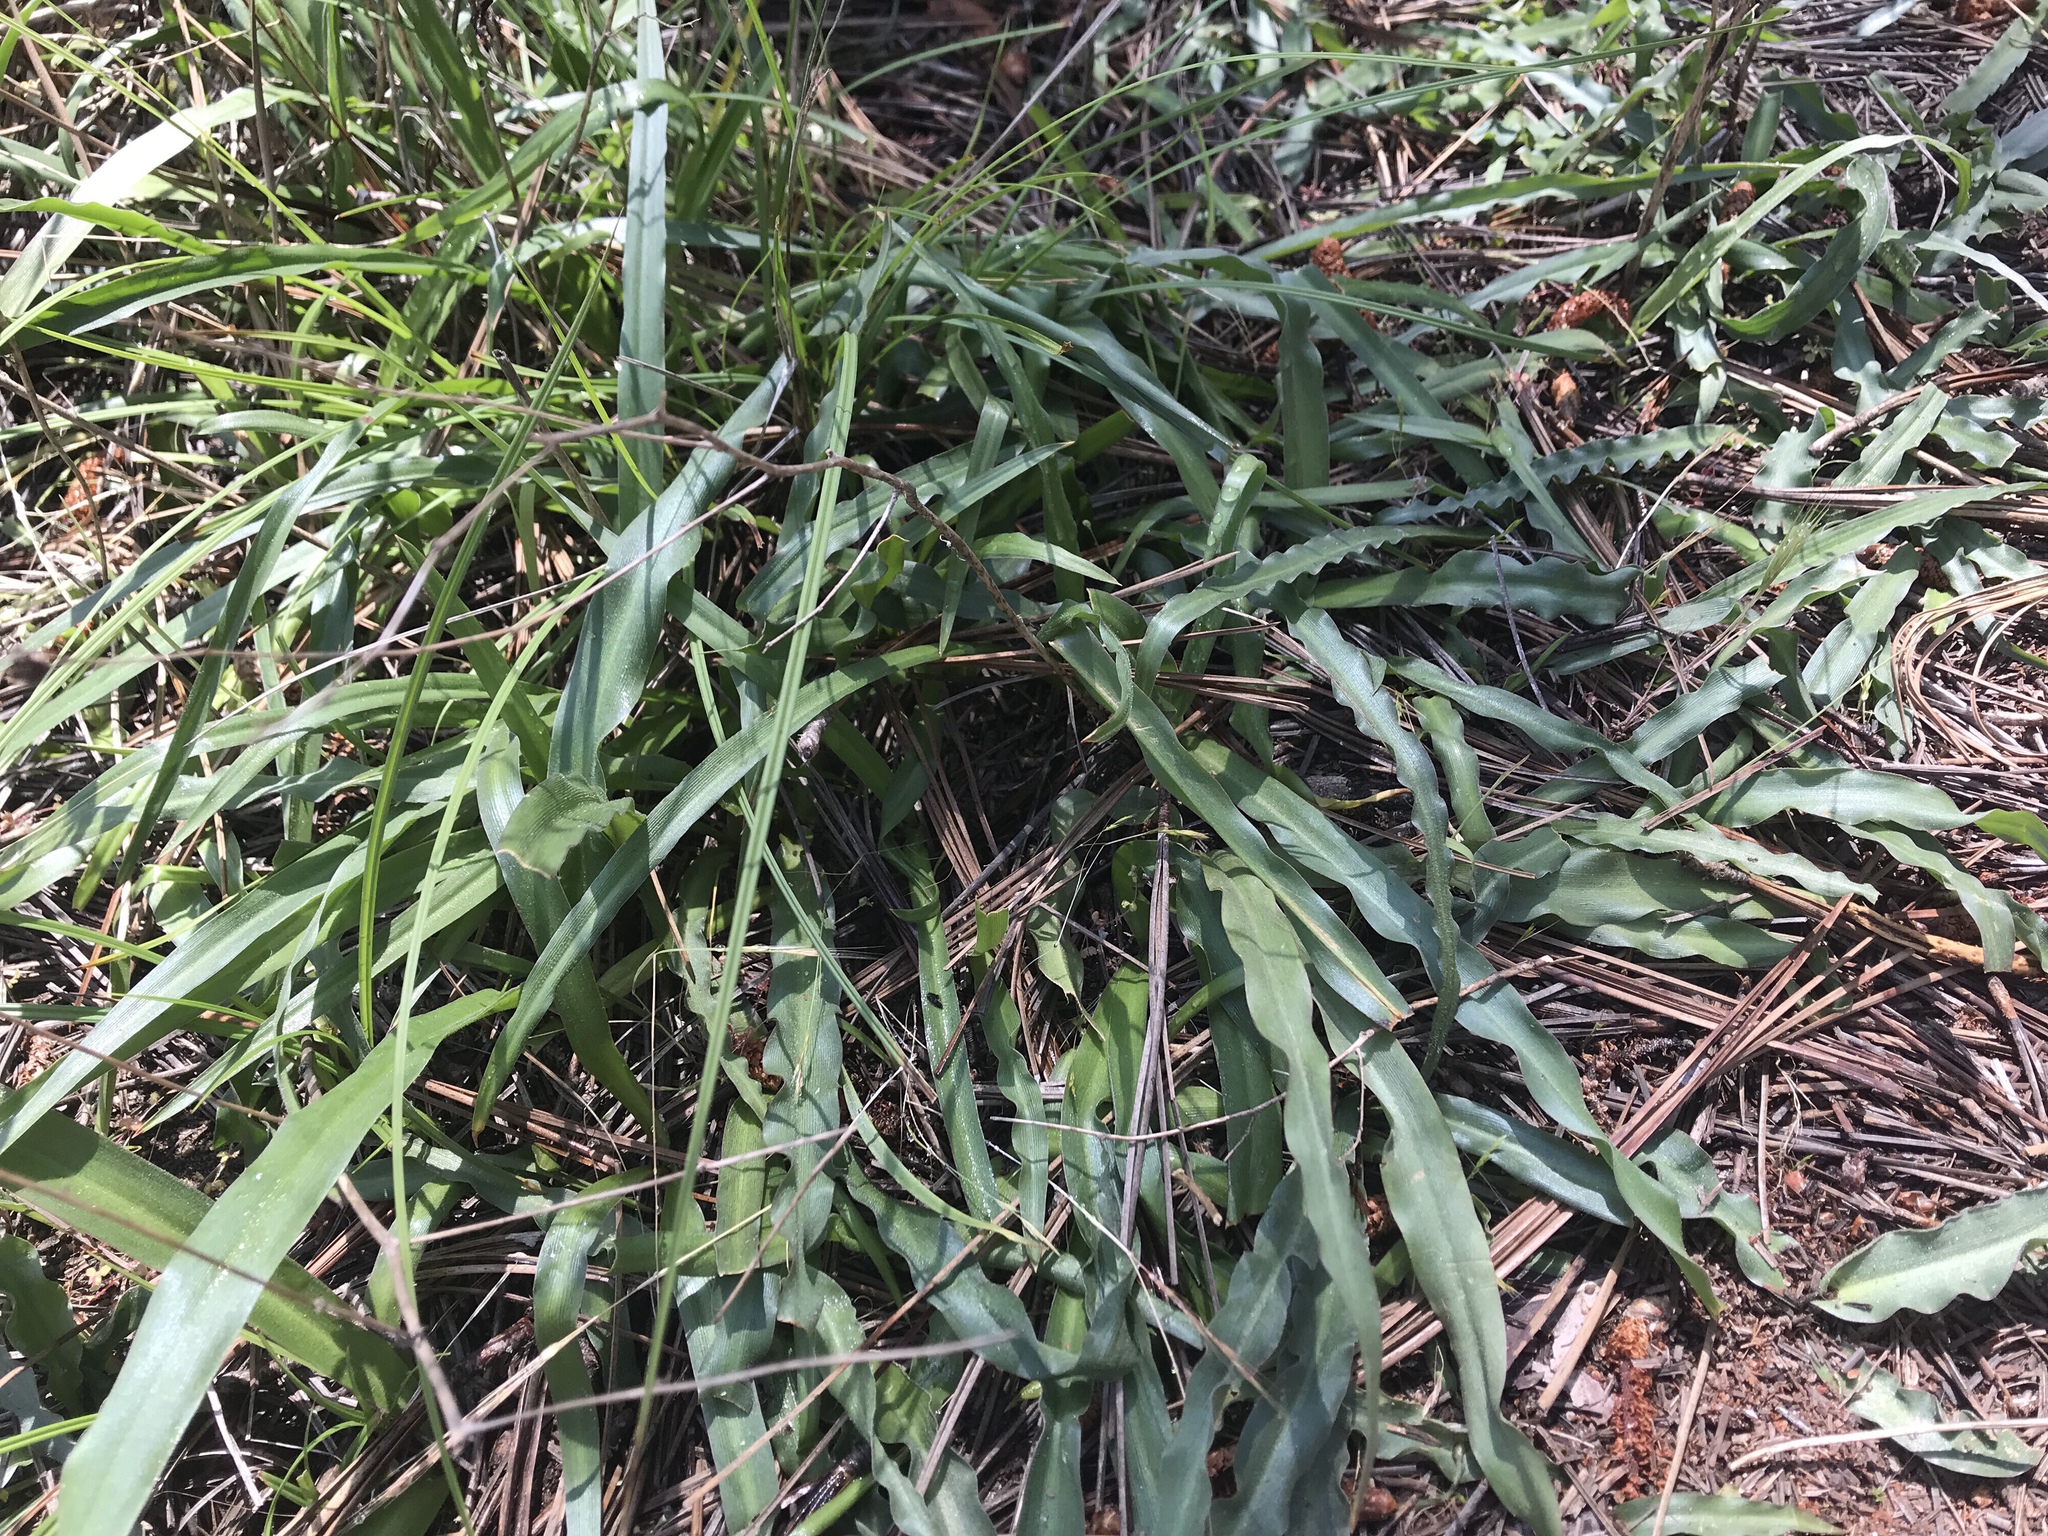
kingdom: Plantae
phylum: Tracheophyta
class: Liliopsida
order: Asparagales
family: Asparagaceae
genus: Hooveria
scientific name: Hooveria parviflora
